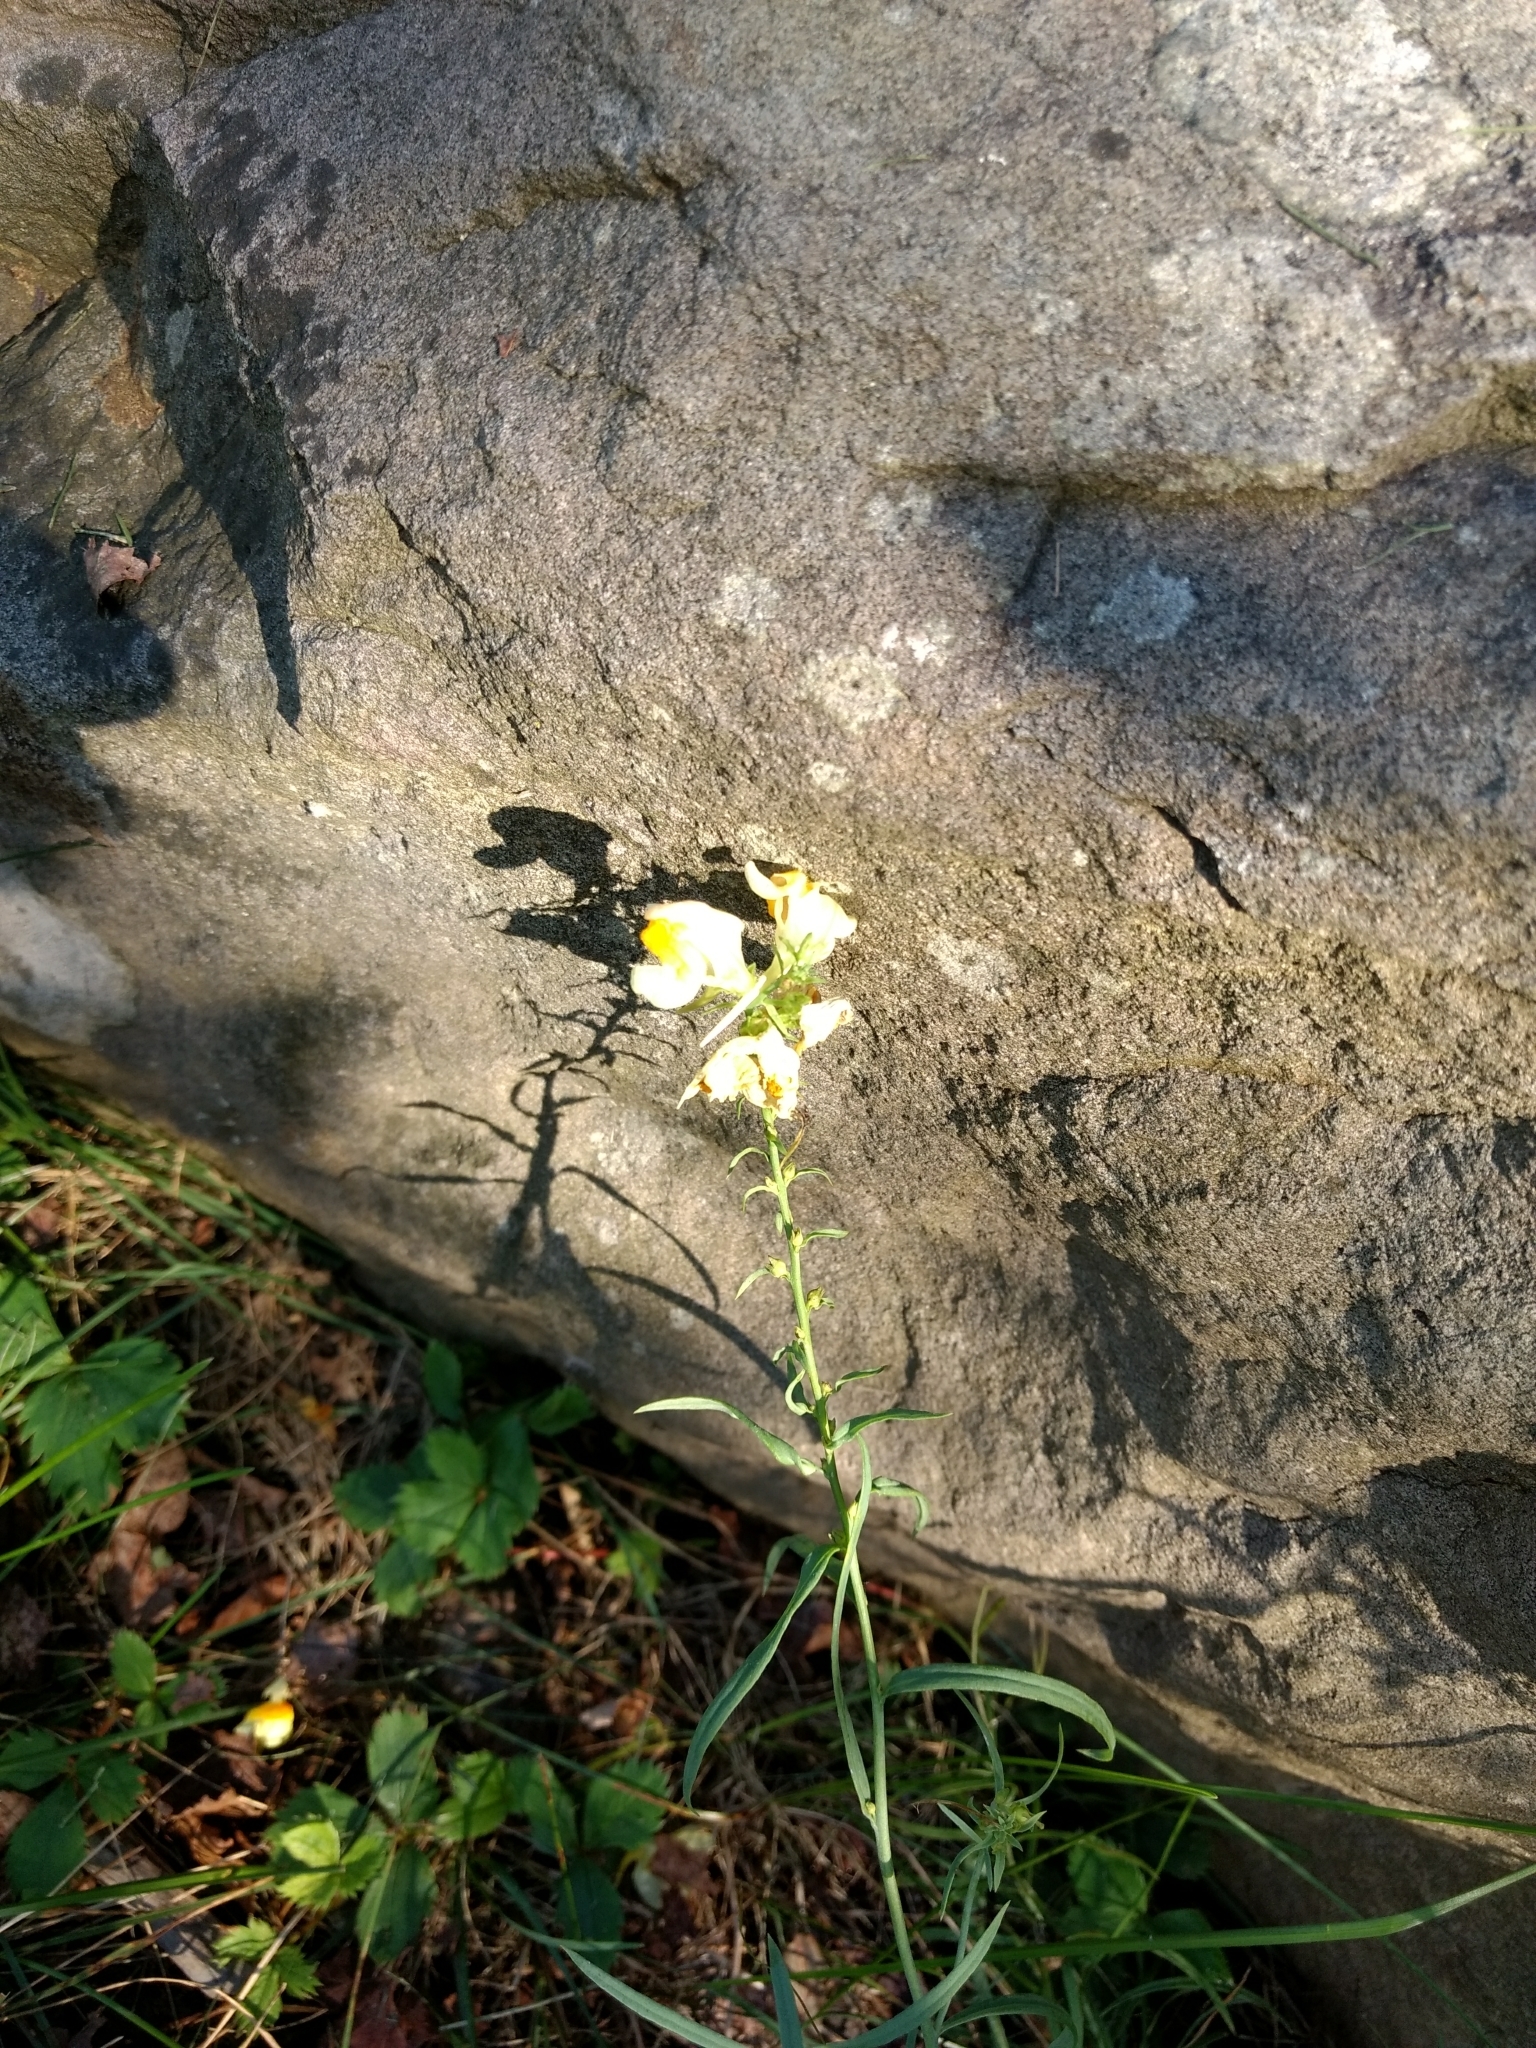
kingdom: Plantae
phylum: Tracheophyta
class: Magnoliopsida
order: Lamiales
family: Plantaginaceae
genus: Linaria
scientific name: Linaria vulgaris
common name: Butter and eggs
